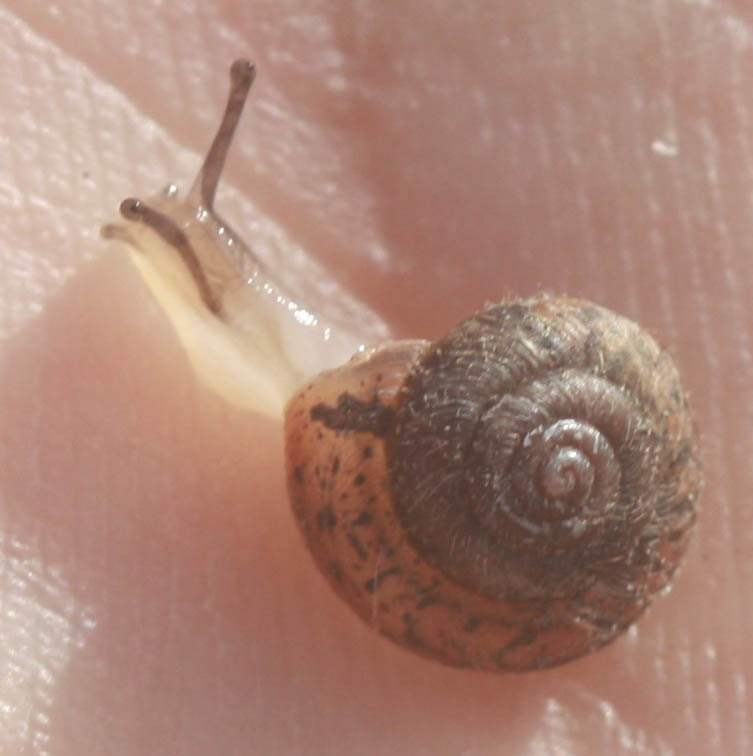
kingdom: Animalia
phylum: Mollusca
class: Gastropoda
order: Stylommatophora
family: Geomitridae
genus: Xerotricha
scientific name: Xerotricha conspurcata
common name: Snail
